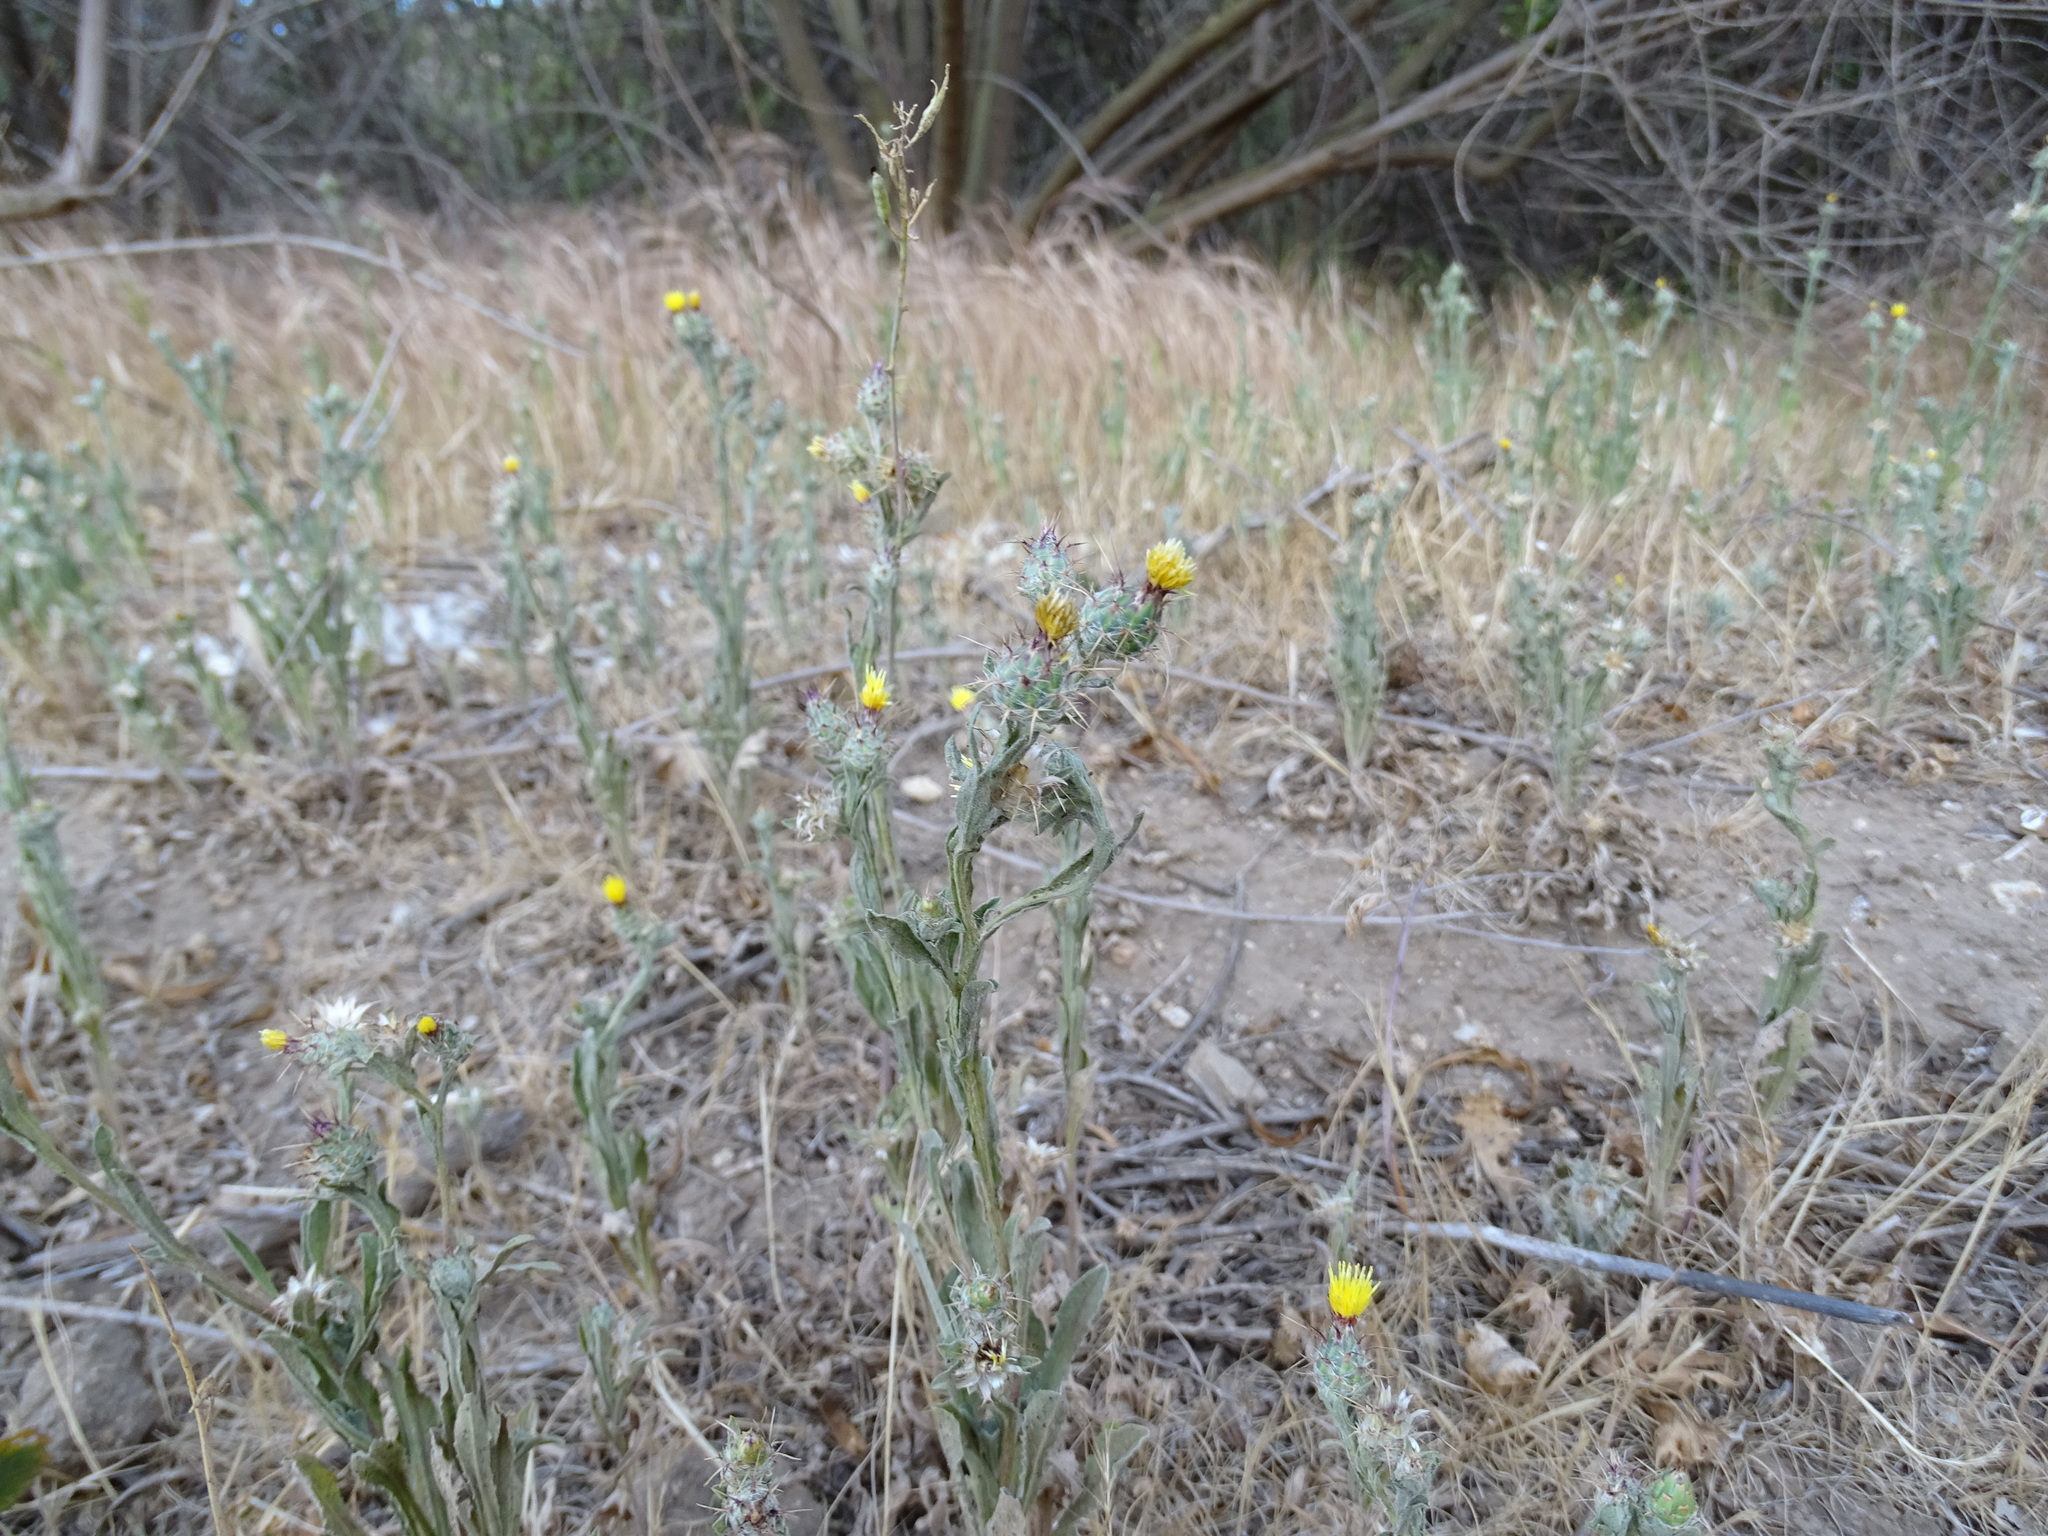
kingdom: Plantae
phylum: Tracheophyta
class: Magnoliopsida
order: Asterales
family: Asteraceae
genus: Centaurea
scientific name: Centaurea melitensis
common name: Maltese star-thistle
